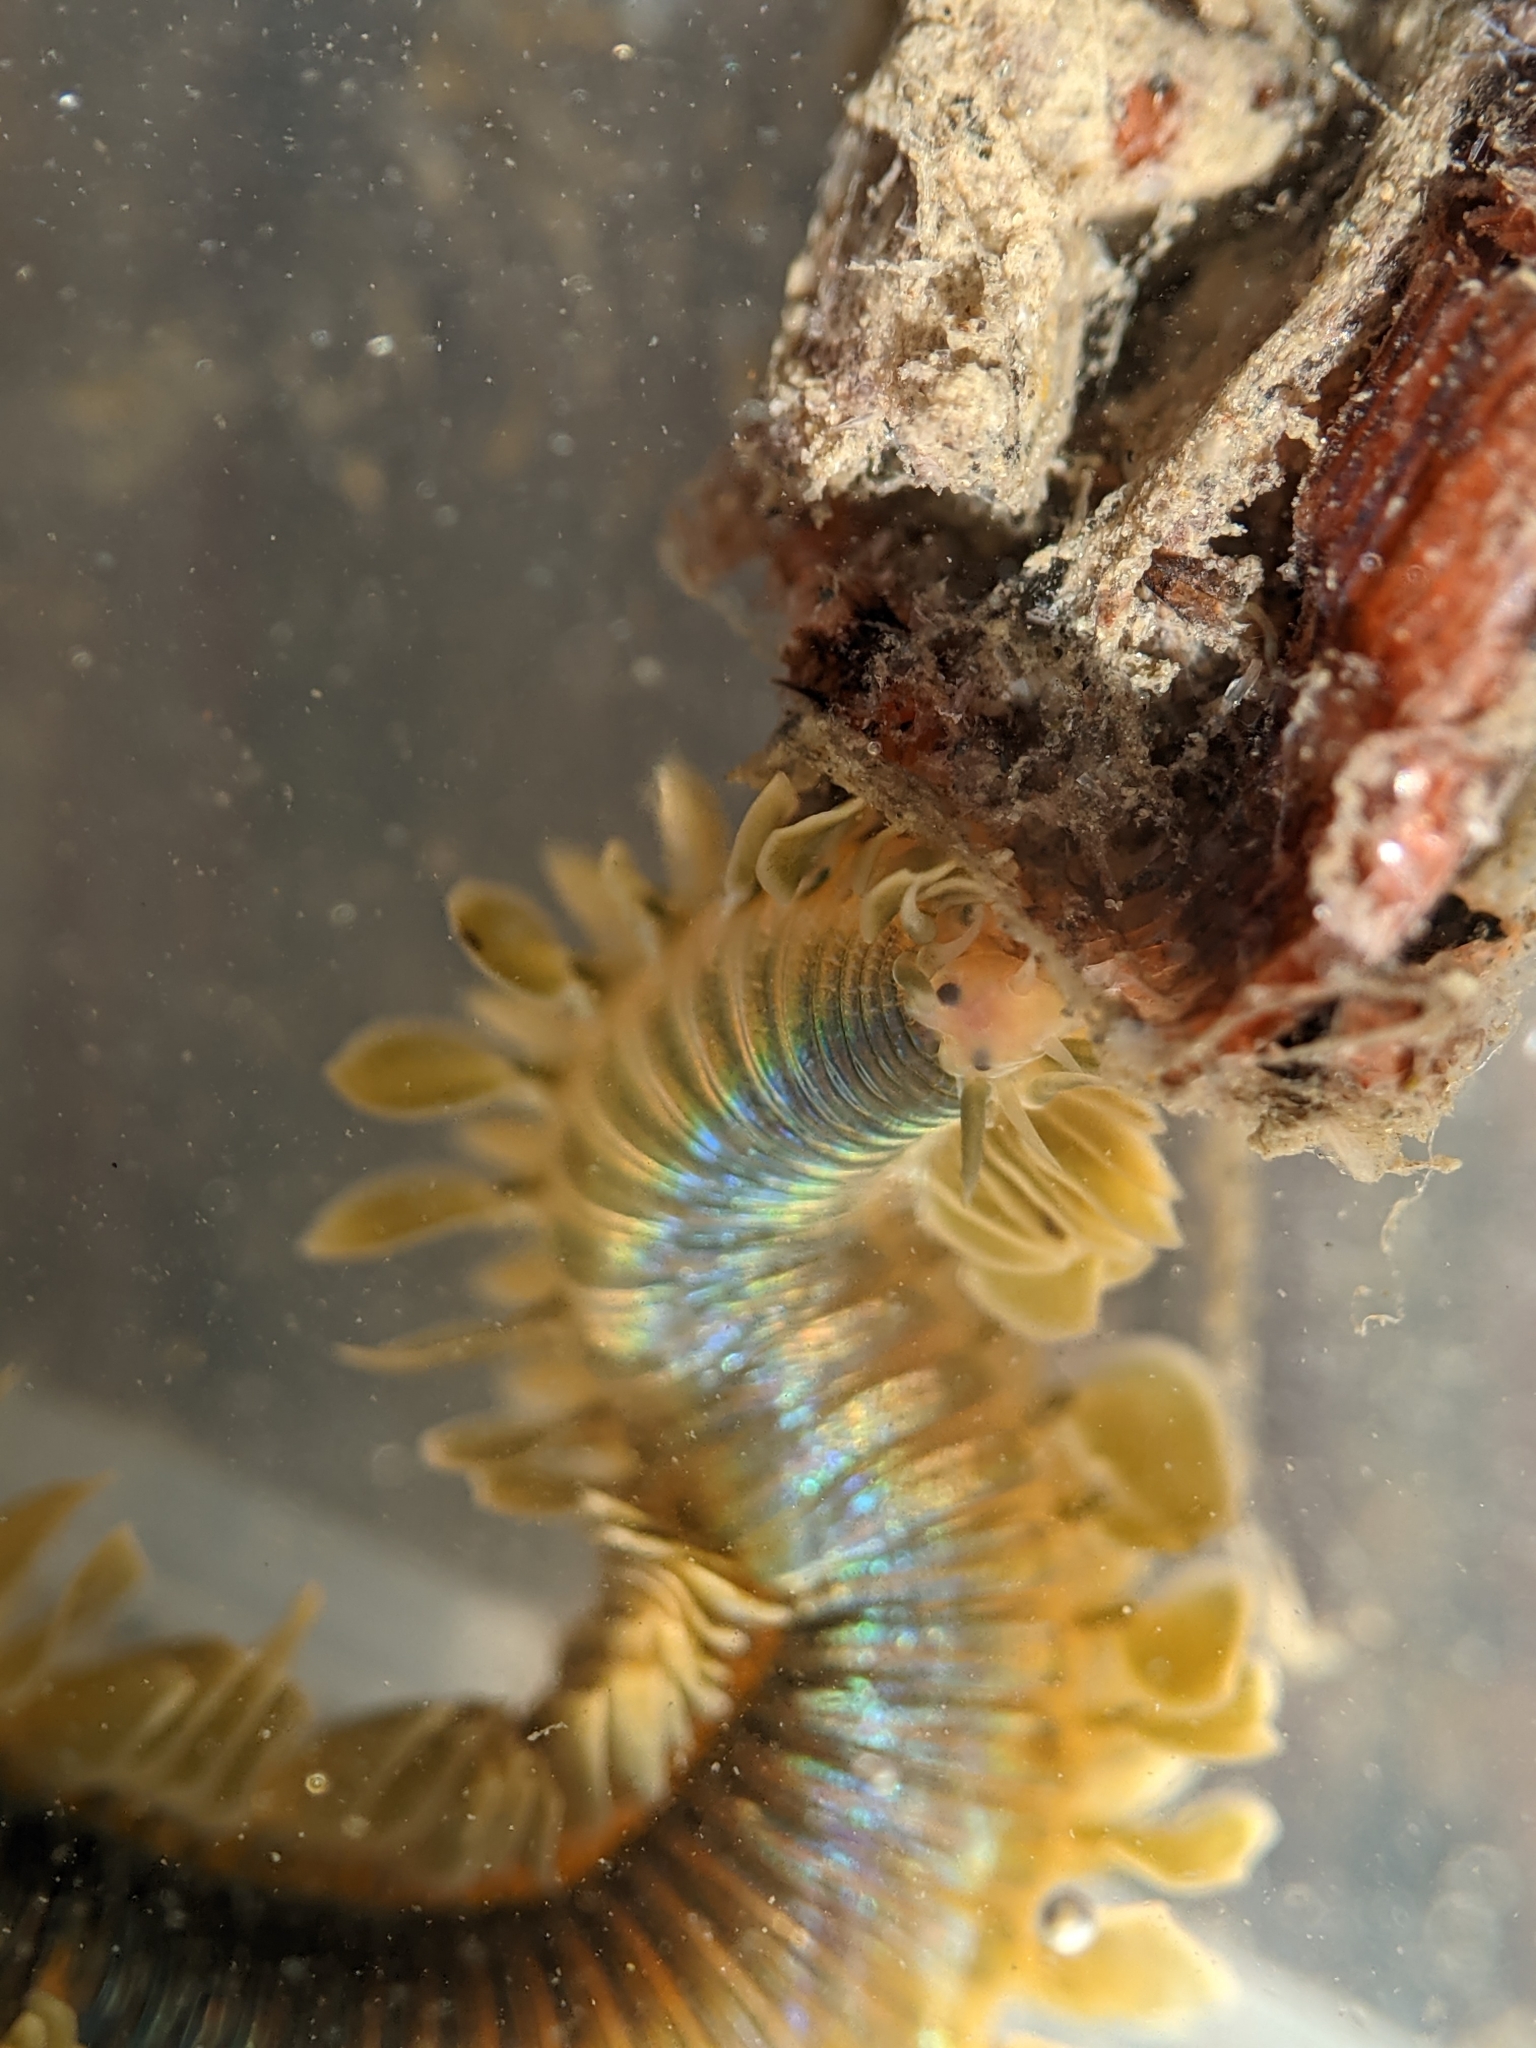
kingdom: Animalia
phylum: Annelida
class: Polychaeta
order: Phyllodocida
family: Phyllodocidae
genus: Phyllodoce
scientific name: Phyllodoce medipapillata
